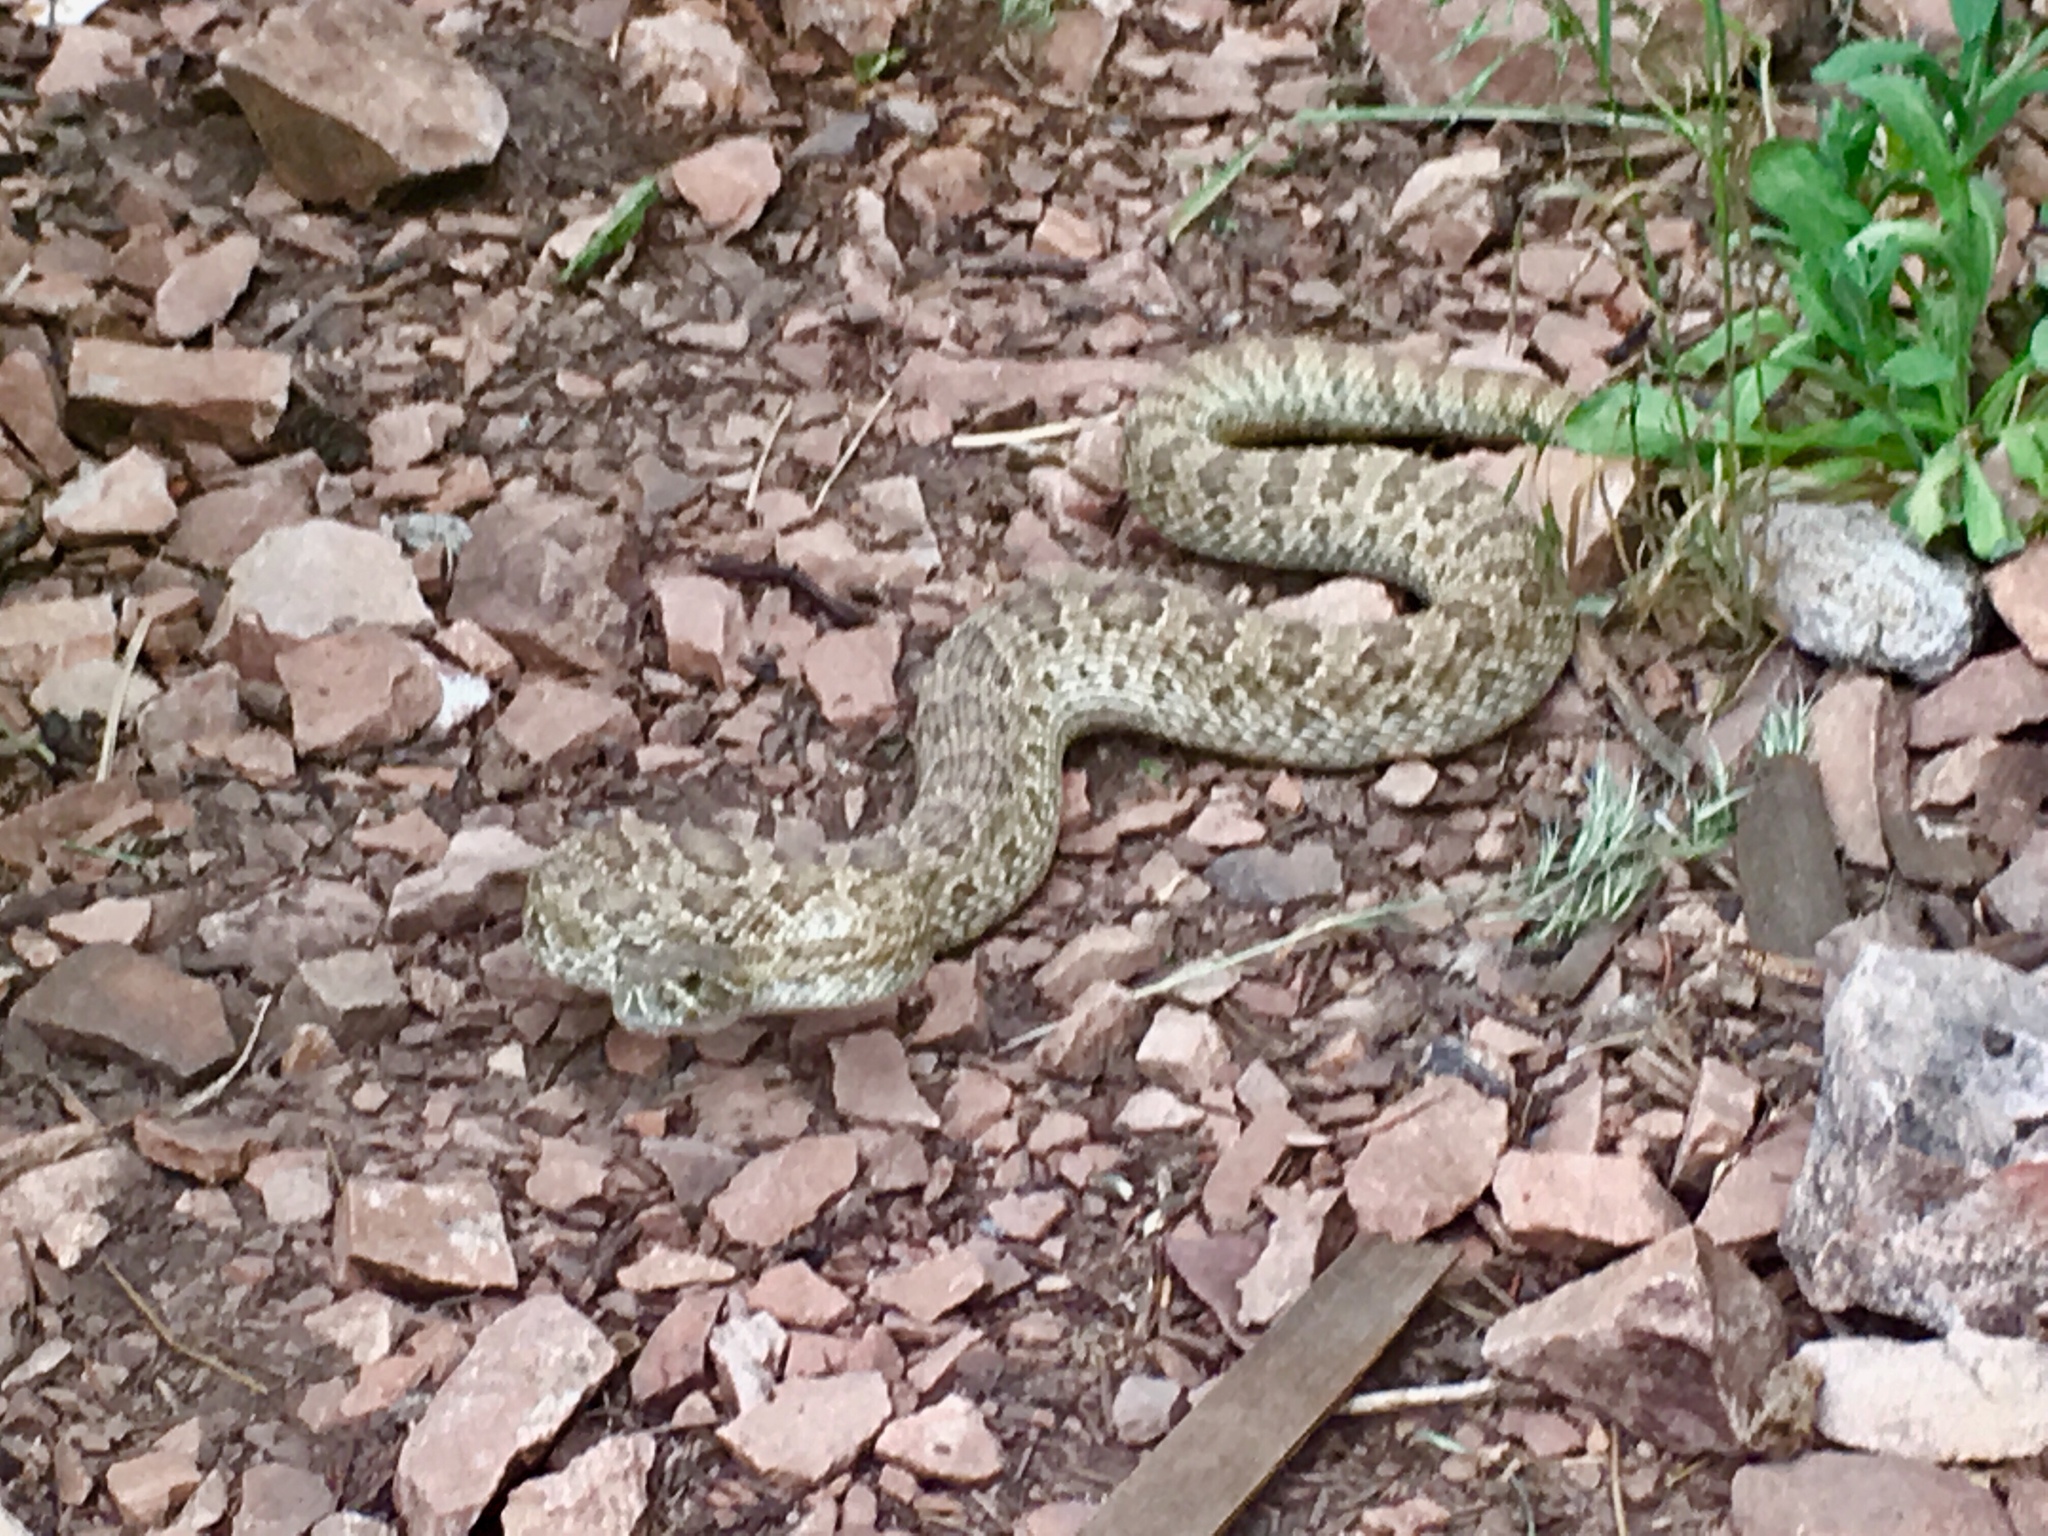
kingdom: Animalia
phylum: Chordata
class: Squamata
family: Viperidae
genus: Crotalus
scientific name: Crotalus viridis
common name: Prairie rattlesnake
